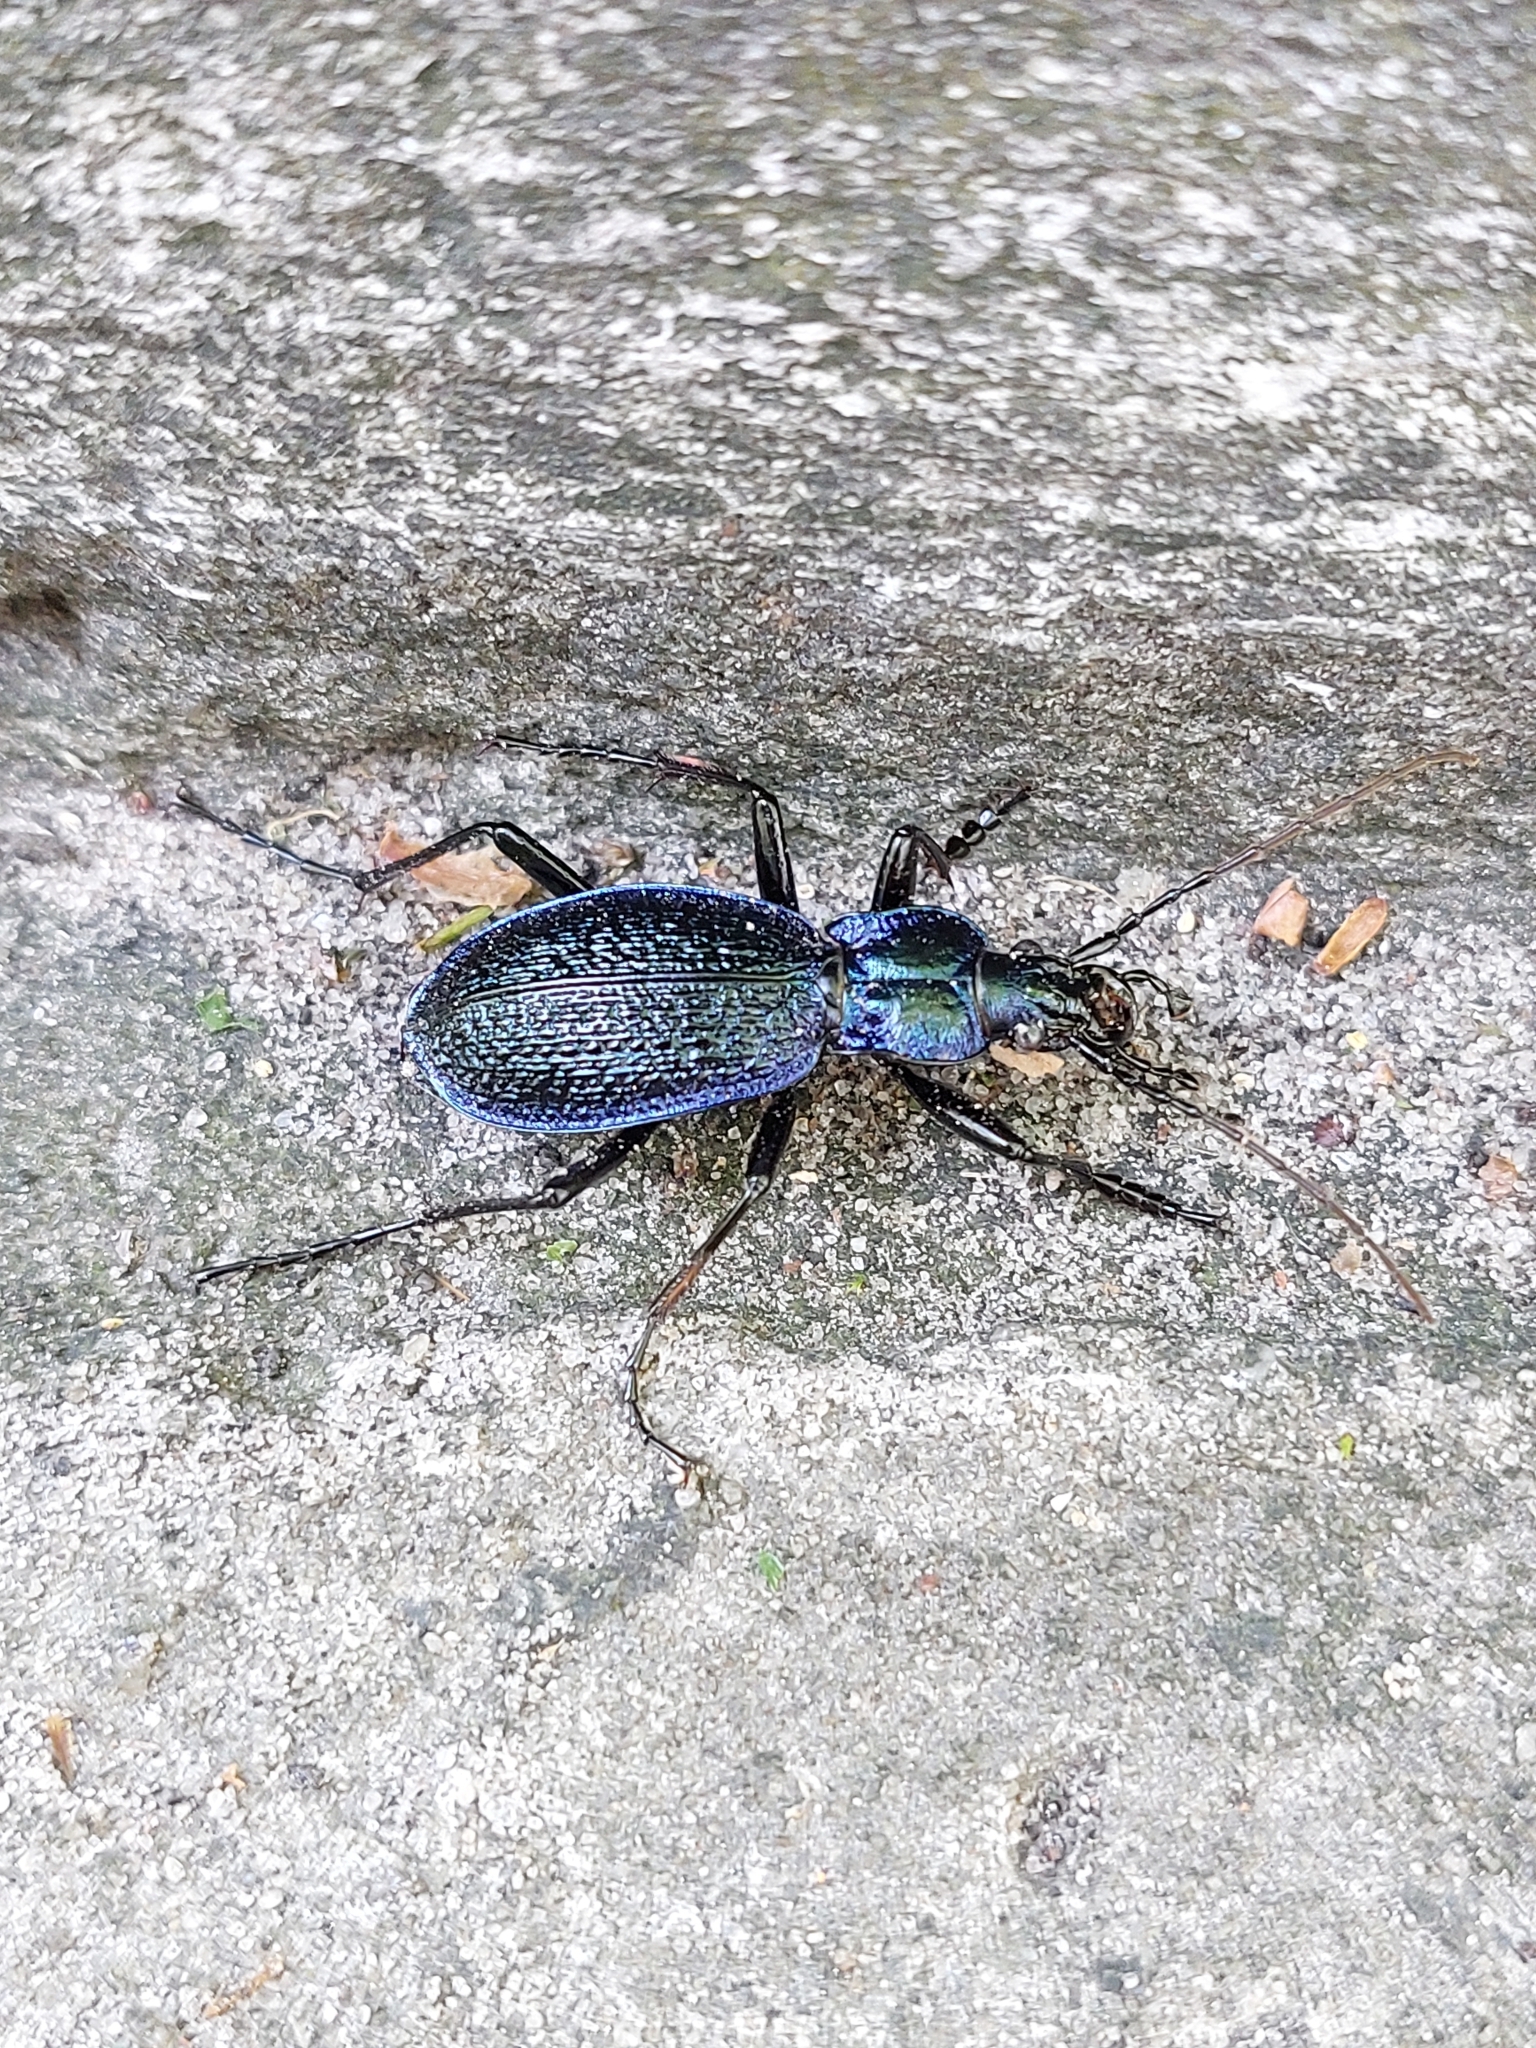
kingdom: Animalia
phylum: Arthropoda
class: Insecta
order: Coleoptera
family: Carabidae
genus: Carabus
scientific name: Carabus intricatus
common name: Blue ground beetle
